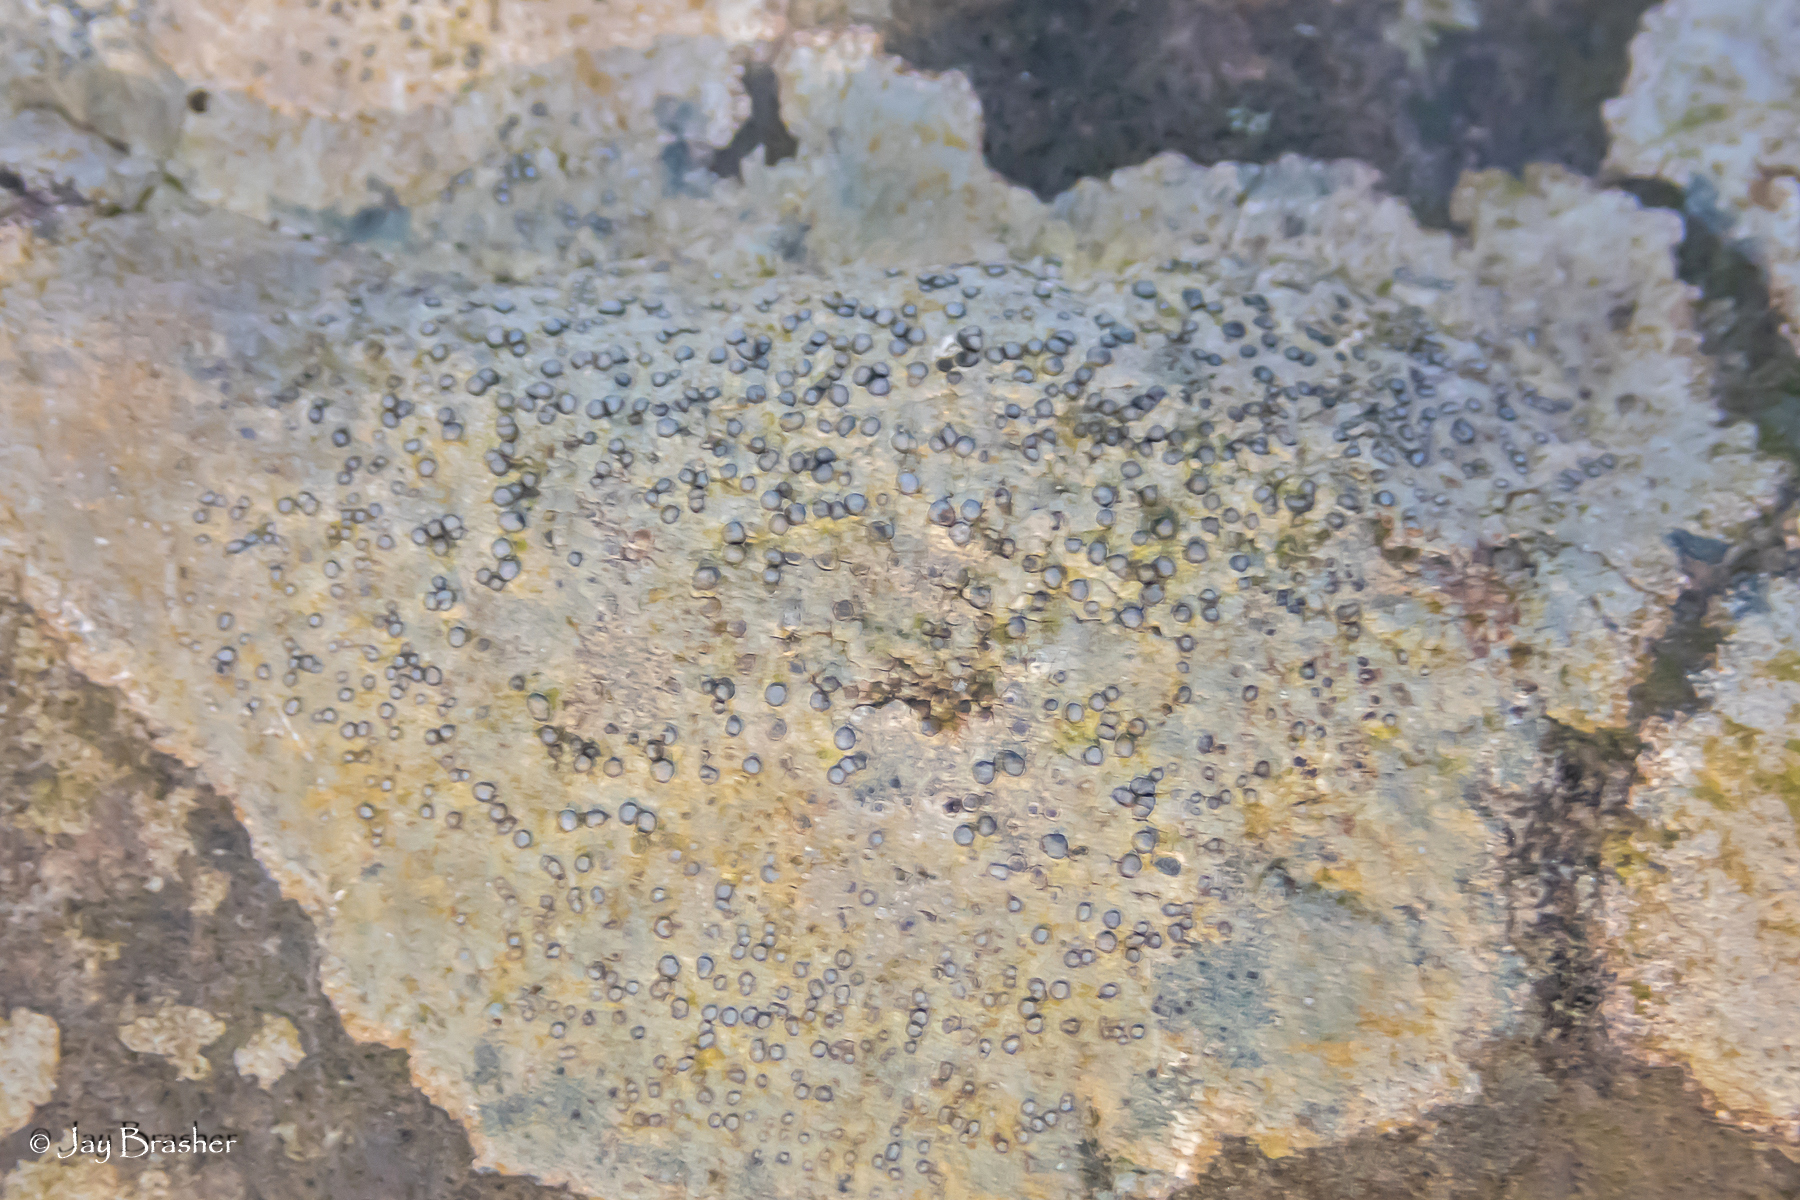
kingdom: Fungi
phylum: Ascomycota
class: Lecanoromycetes
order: Lecideales
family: Lecideaceae
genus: Porpidia
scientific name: Porpidia albocaerulescens
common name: Smokey-eyed boulder lichen
